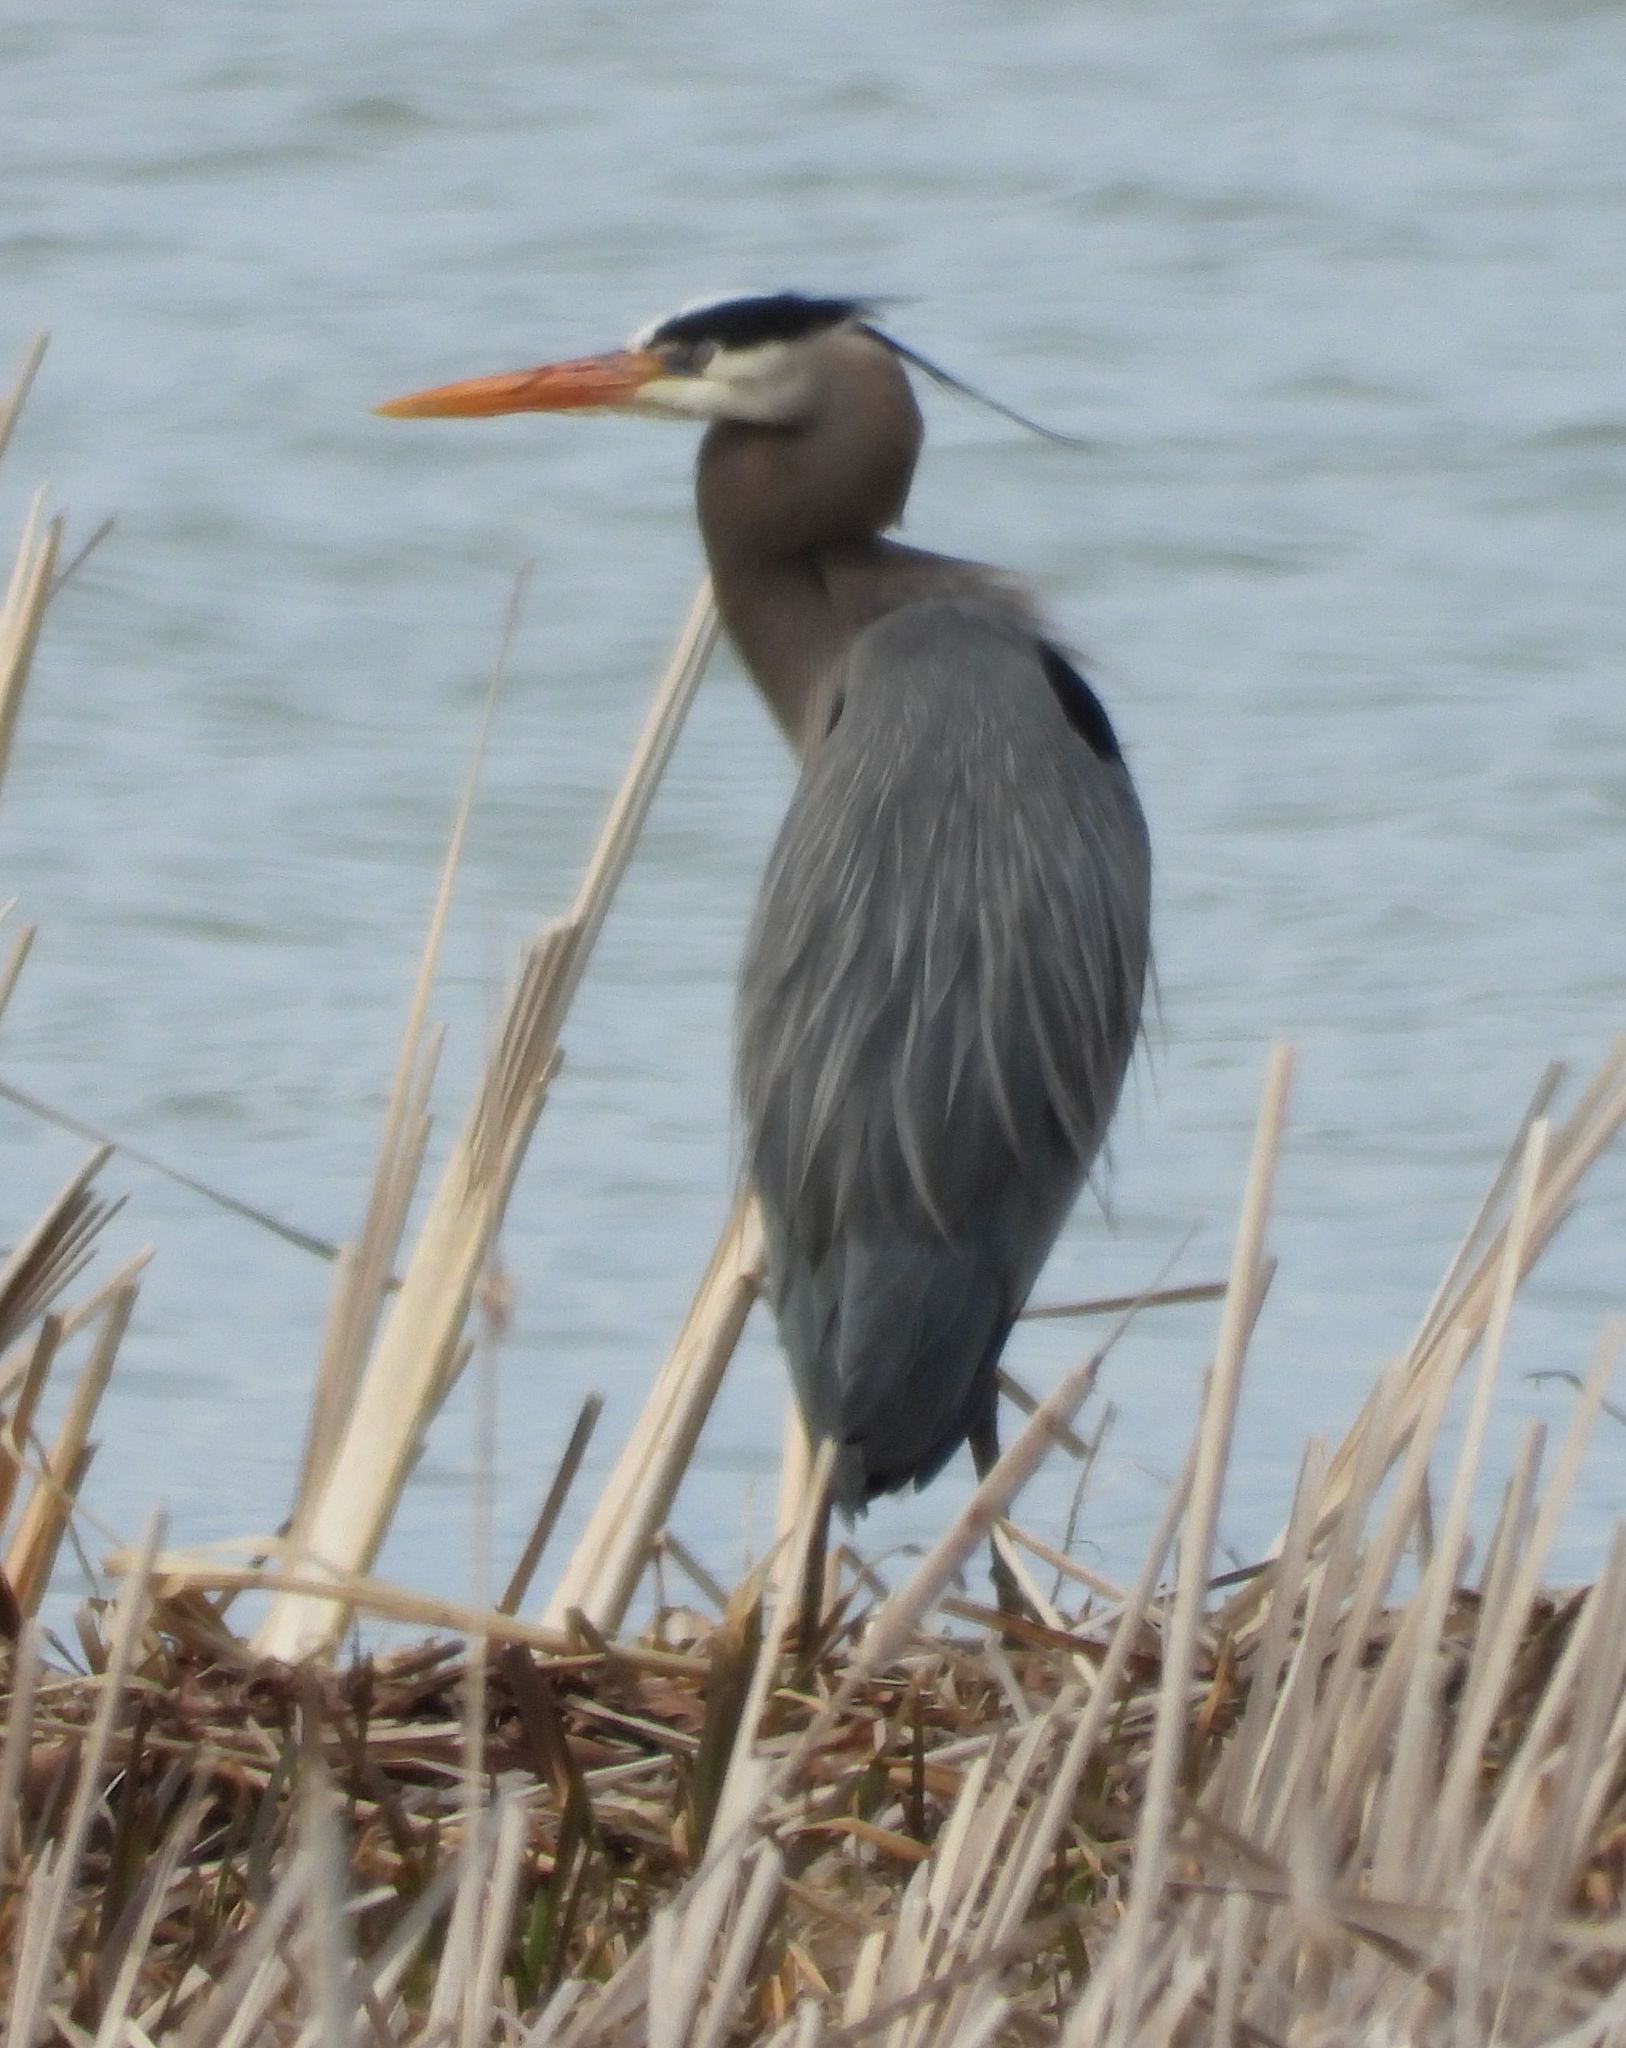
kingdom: Animalia
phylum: Chordata
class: Aves
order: Pelecaniformes
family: Ardeidae
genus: Ardea
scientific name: Ardea herodias
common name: Great blue heron
